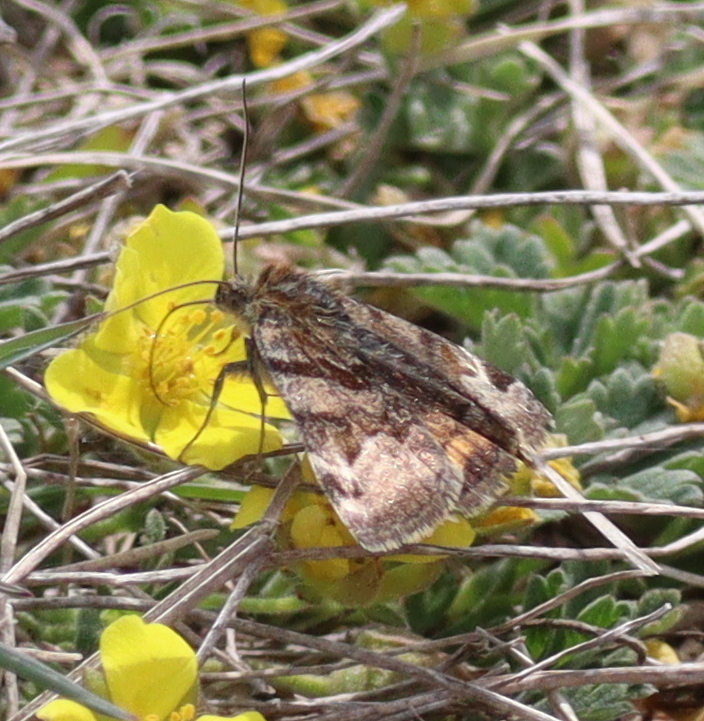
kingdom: Animalia
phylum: Arthropoda
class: Insecta
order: Lepidoptera
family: Erebidae
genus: Euclidia
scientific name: Euclidia glyphica
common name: Burnet companion
